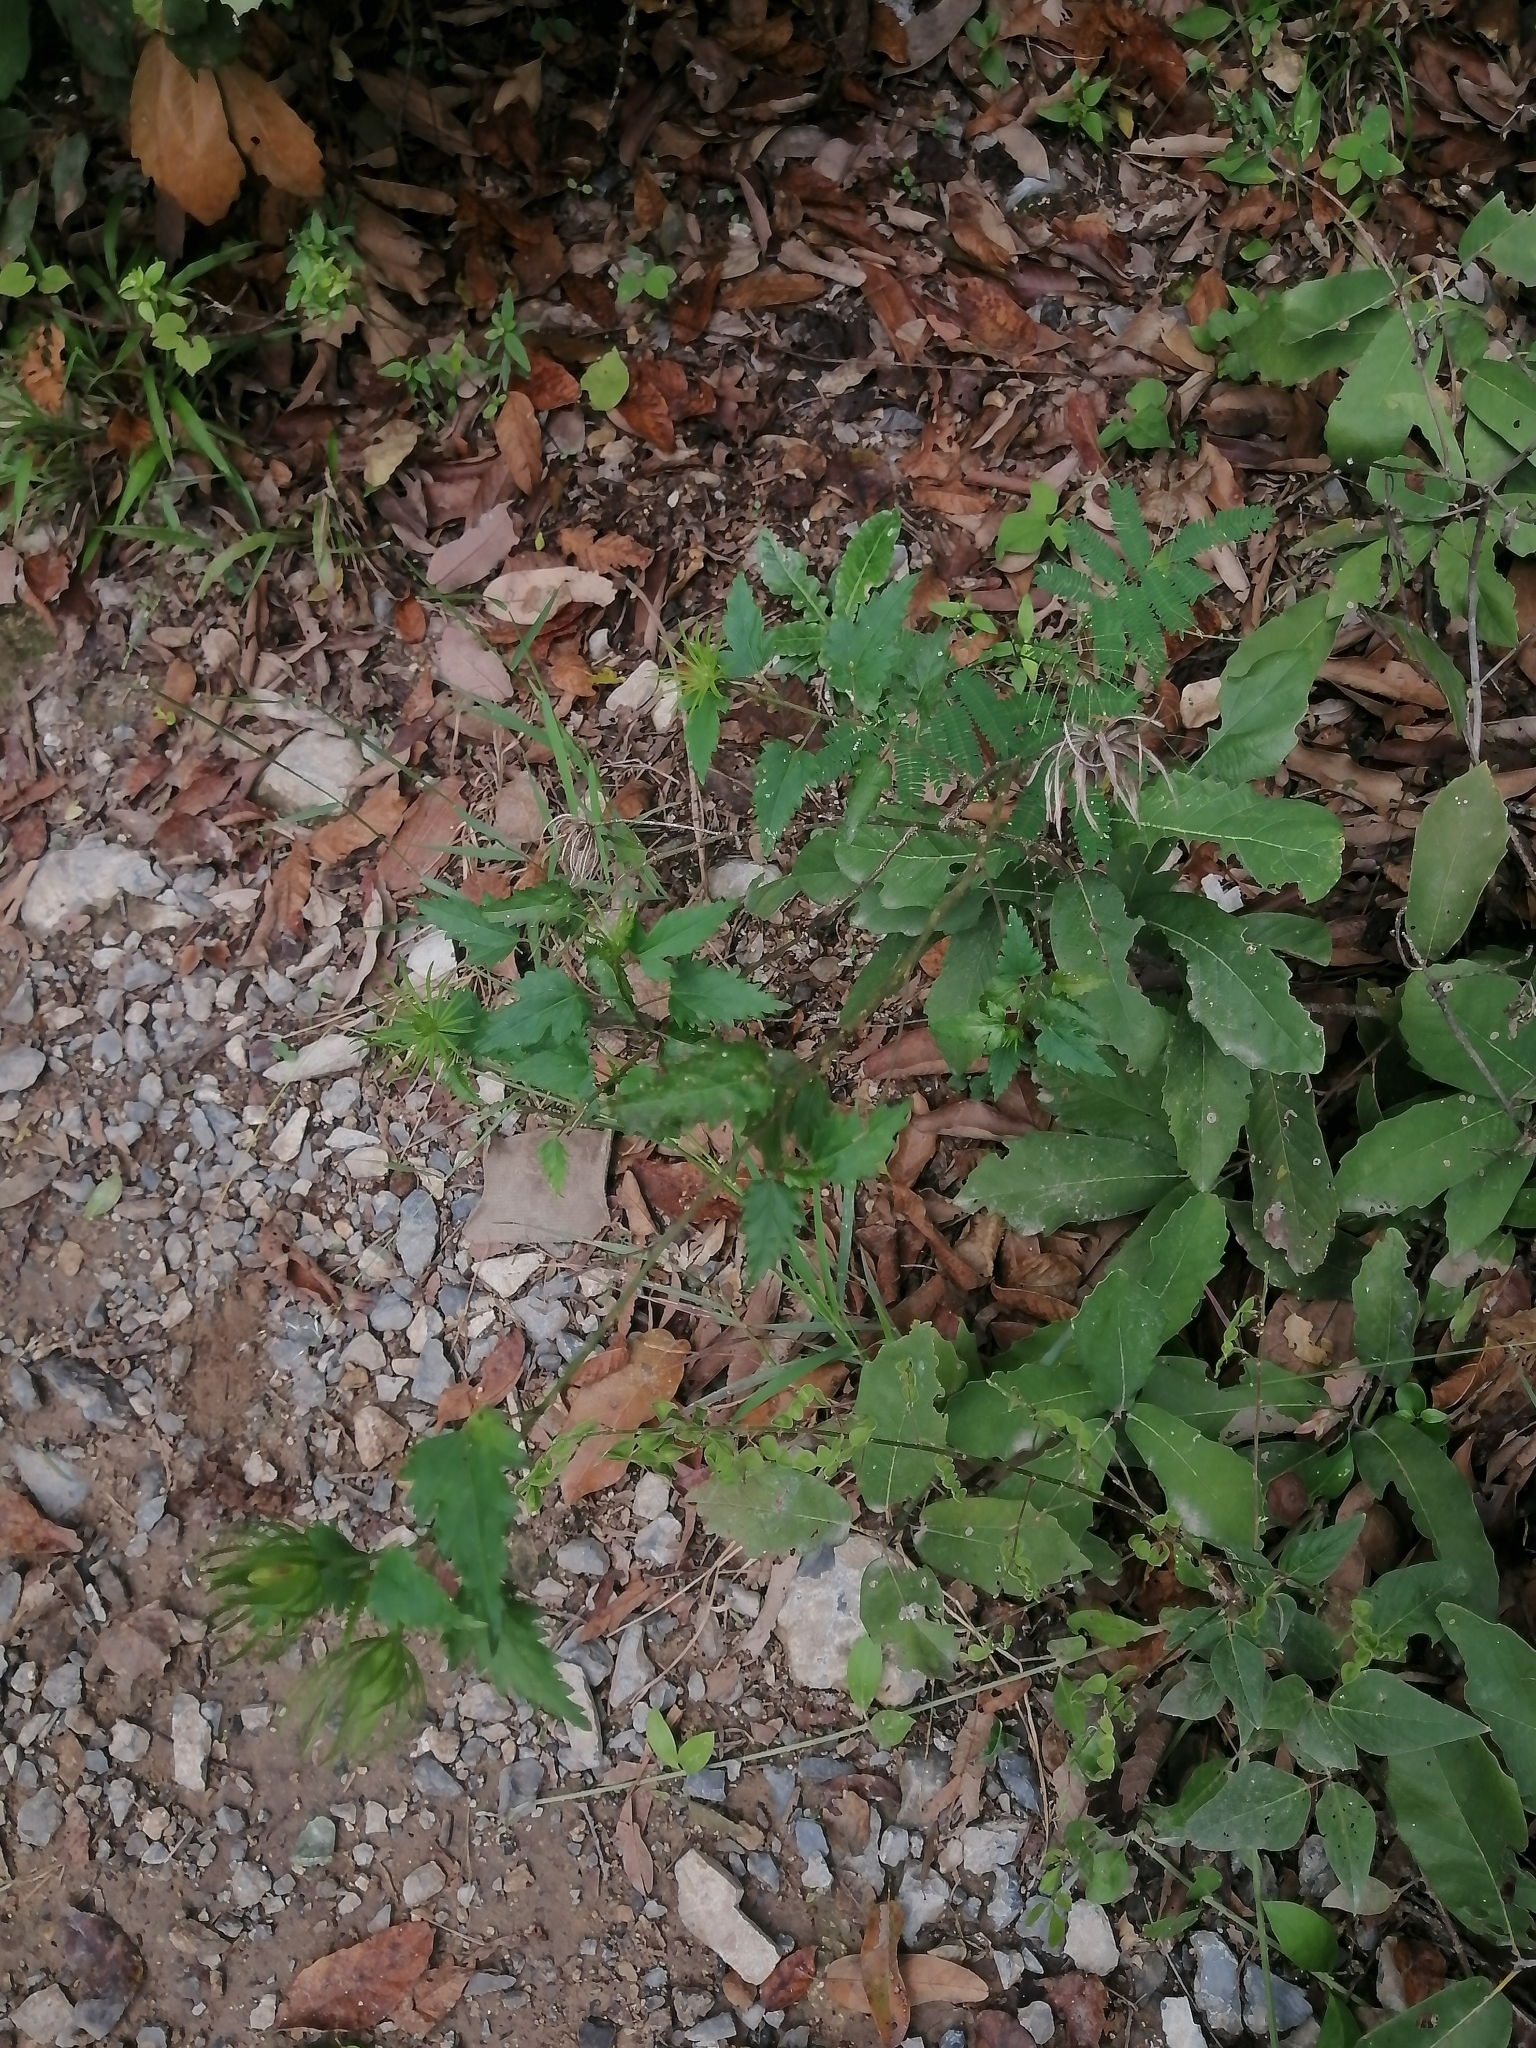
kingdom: Plantae
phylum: Tracheophyta
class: Magnoliopsida
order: Malvales
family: Malvaceae
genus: Hibiscus
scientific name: Hibiscus acicularis
